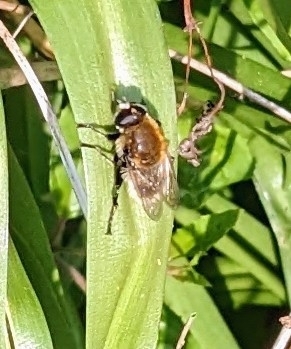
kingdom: Animalia
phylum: Arthropoda
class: Insecta
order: Diptera
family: Syrphidae
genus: Merodon
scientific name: Merodon equestris
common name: Greater bulb-fly
